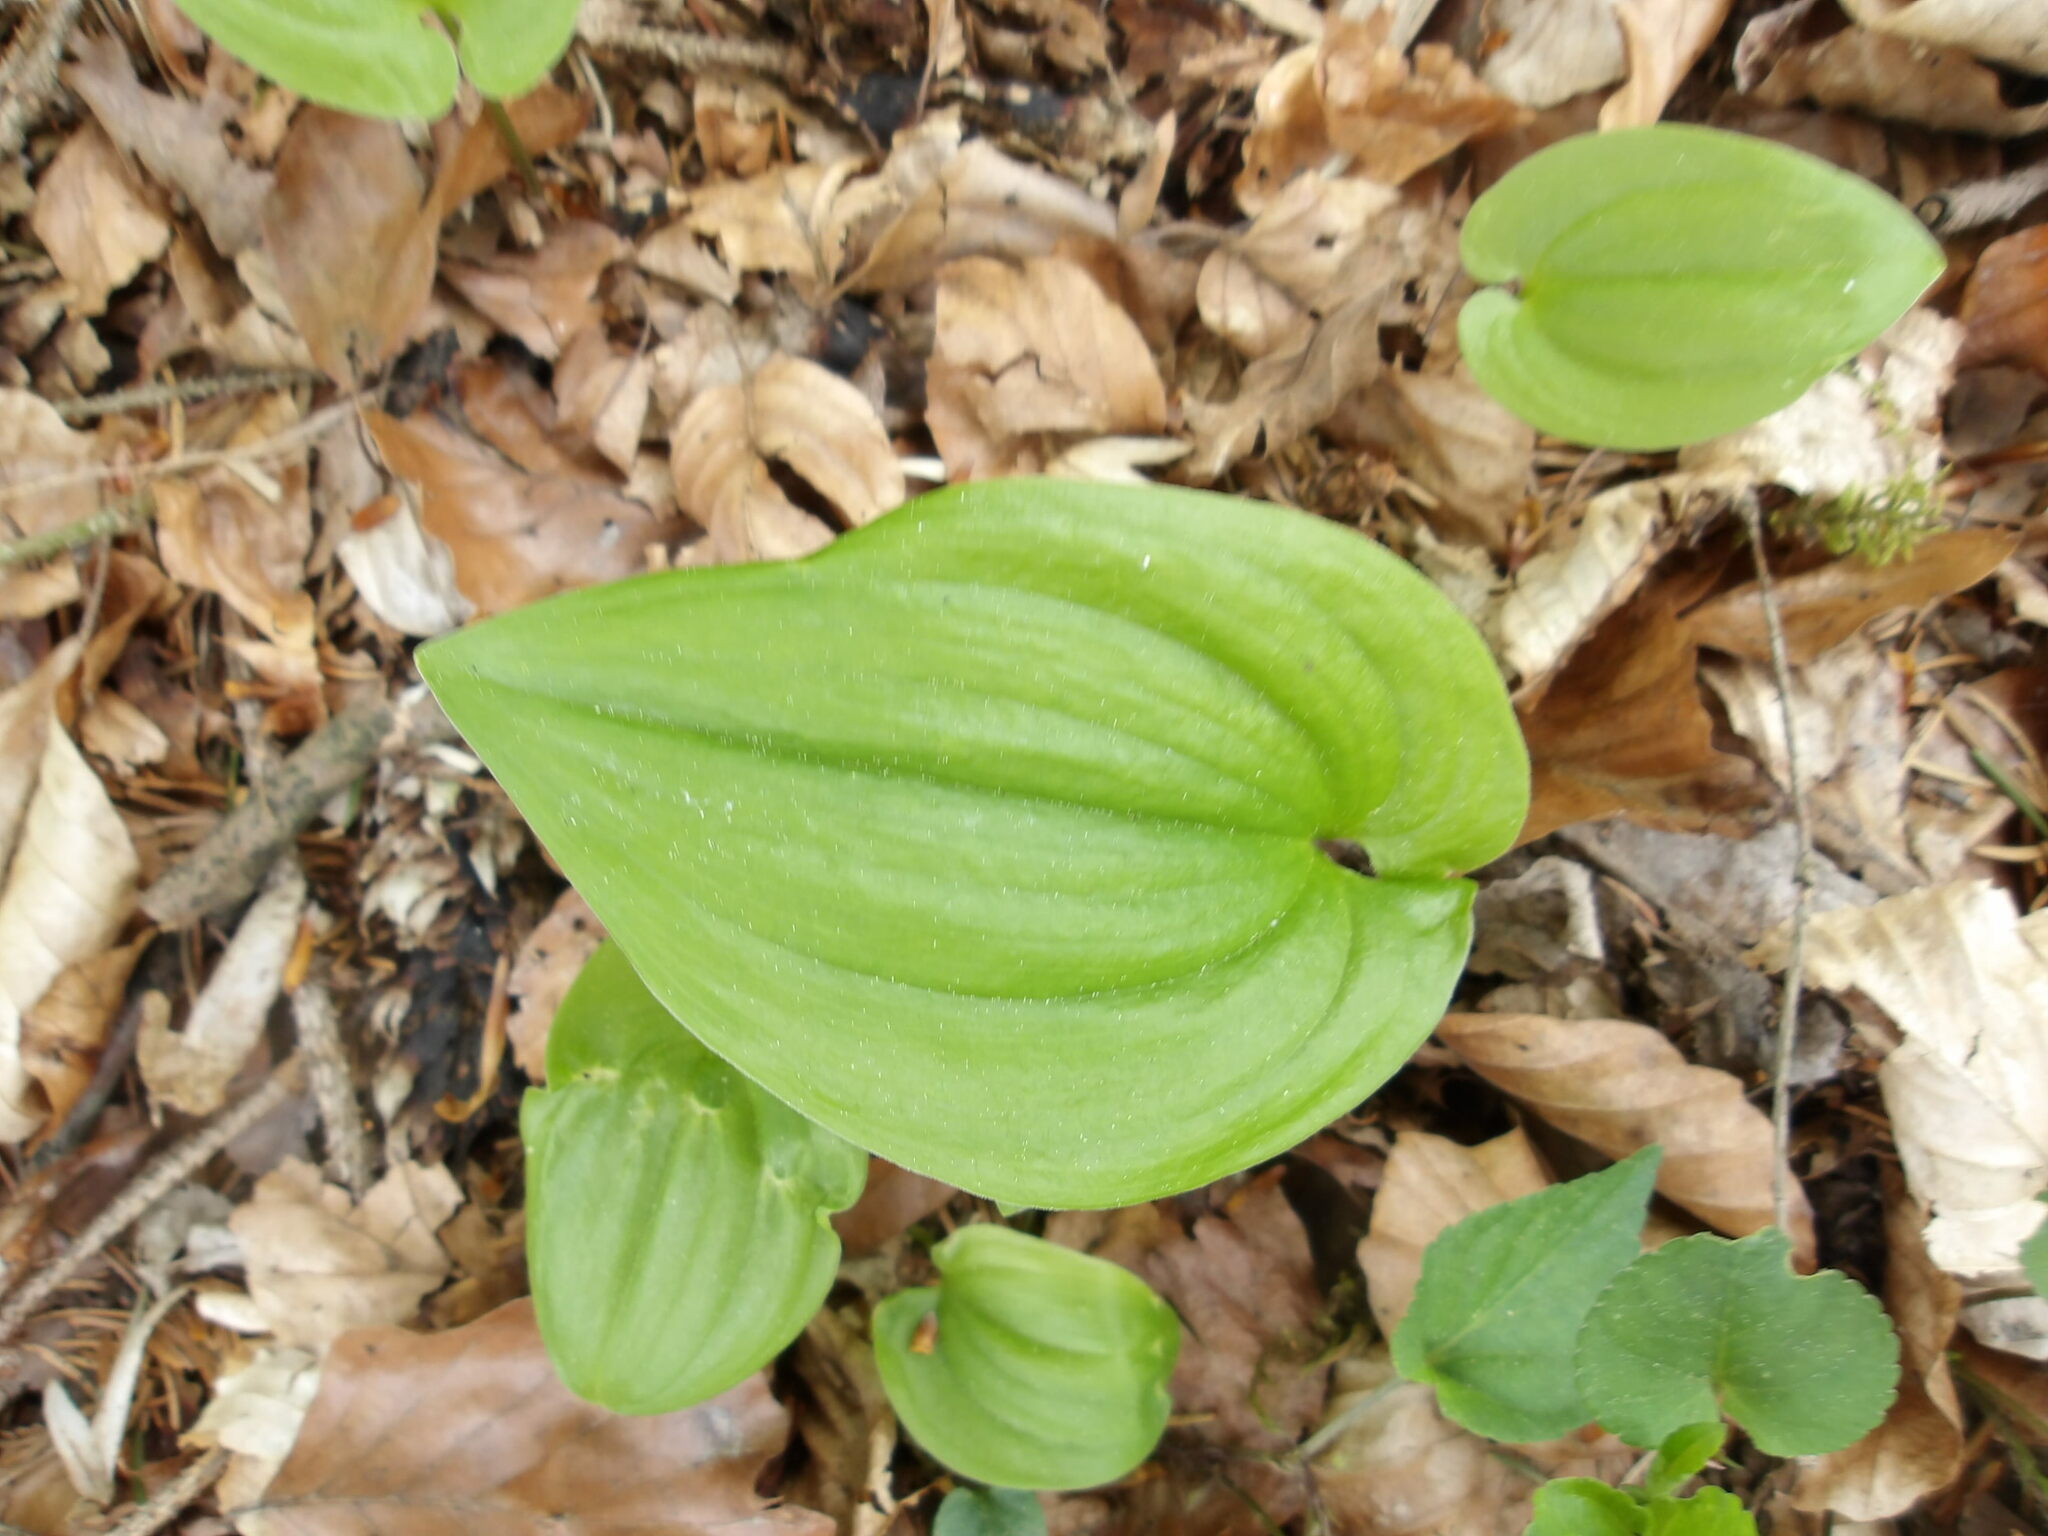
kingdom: Plantae
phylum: Tracheophyta
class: Liliopsida
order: Asparagales
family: Asparagaceae
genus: Maianthemum
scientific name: Maianthemum bifolium
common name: May lily
